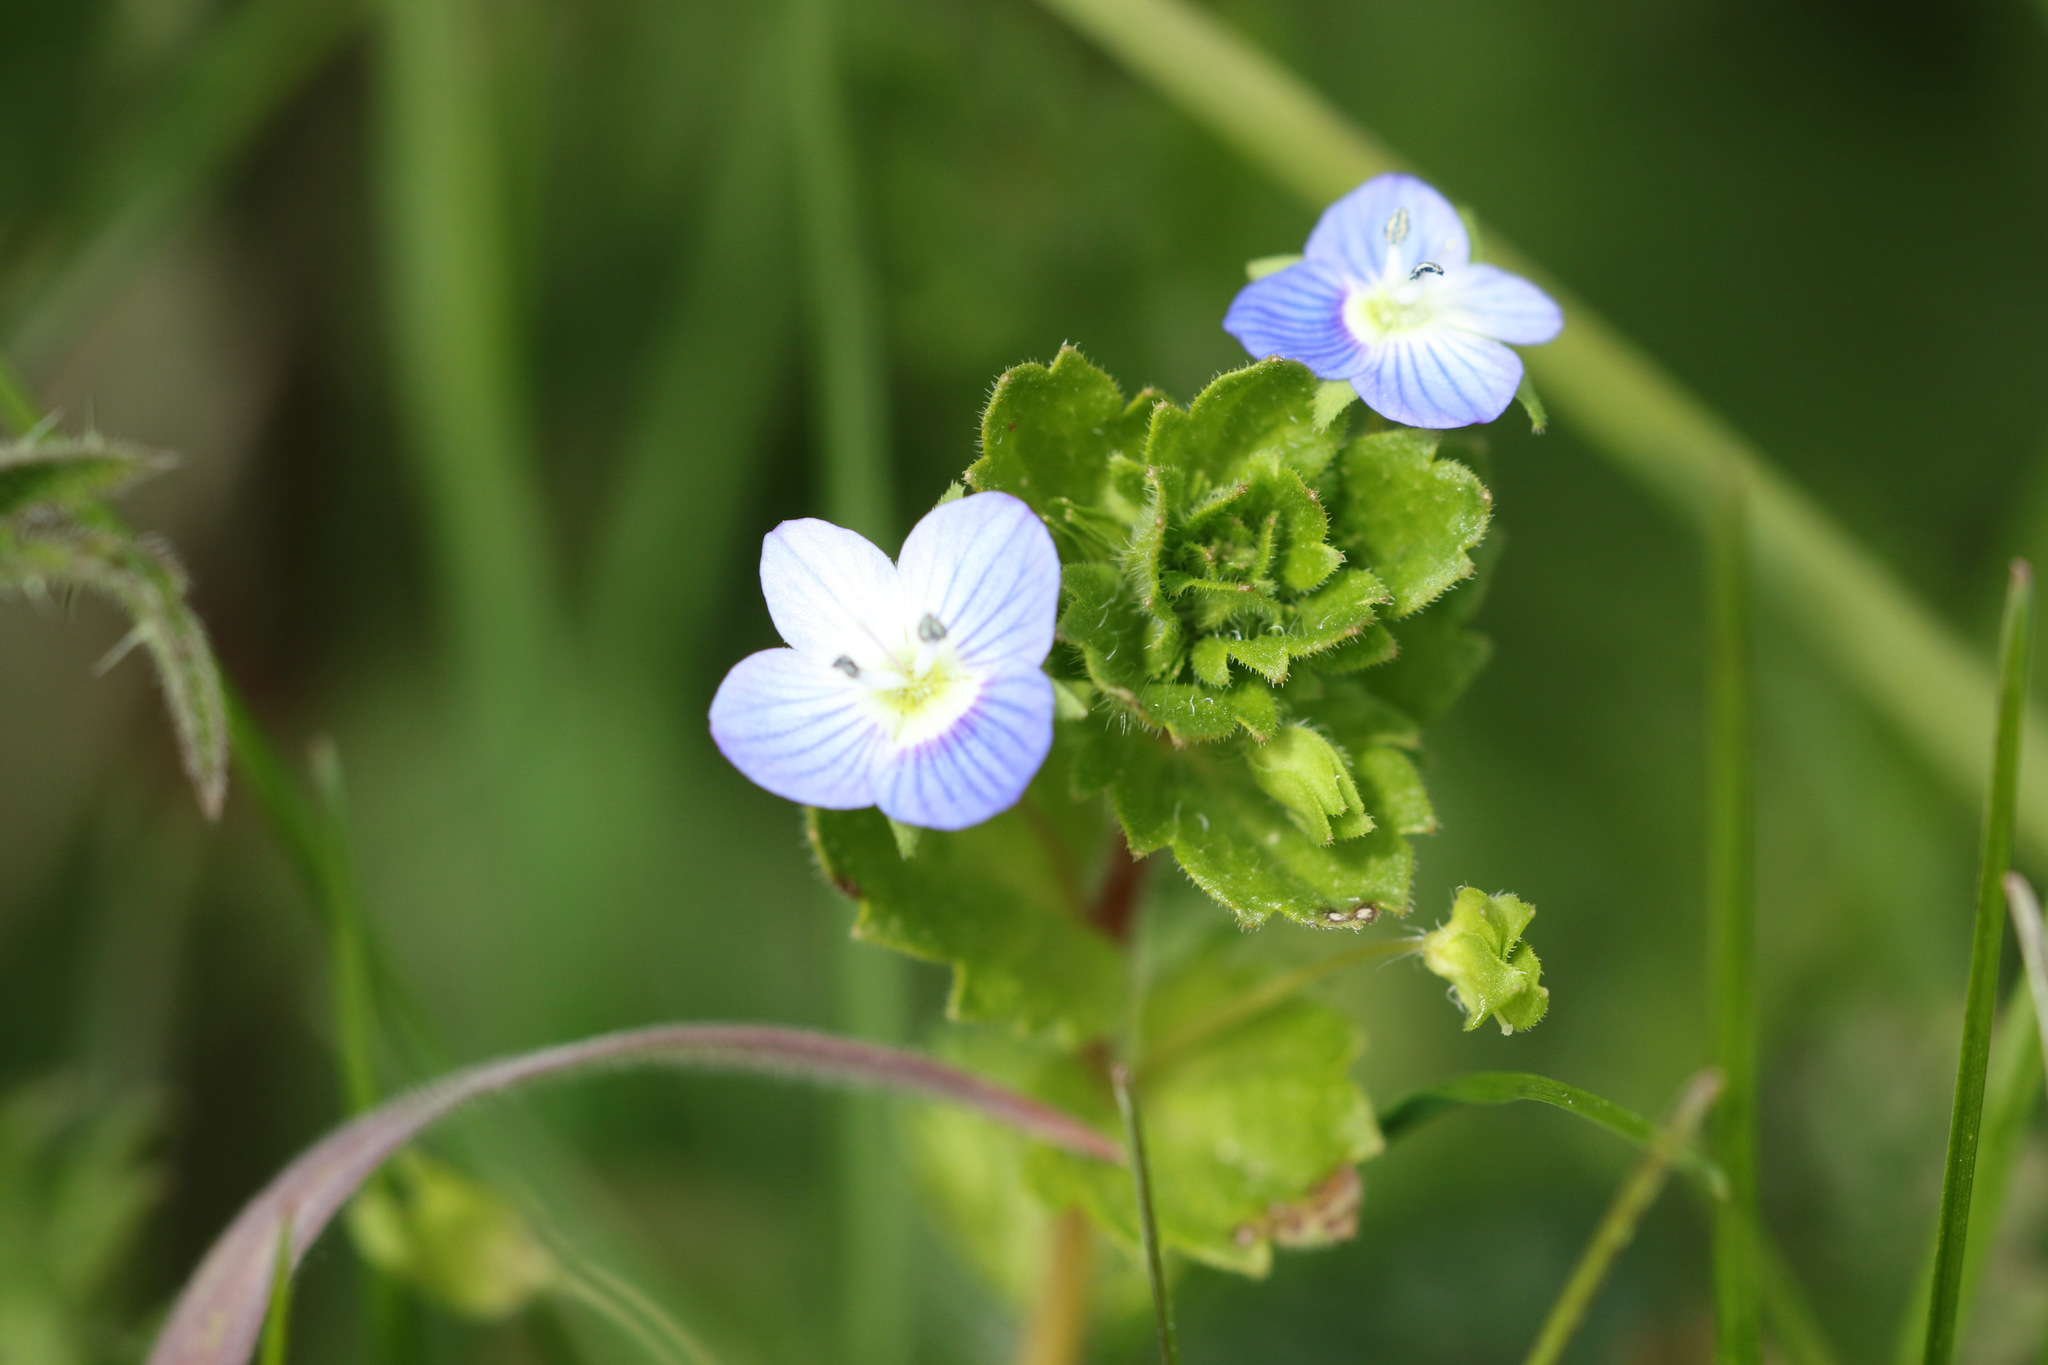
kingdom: Plantae
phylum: Tracheophyta
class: Magnoliopsida
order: Lamiales
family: Plantaginaceae
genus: Veronica
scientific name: Veronica persica
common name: Common field-speedwell
